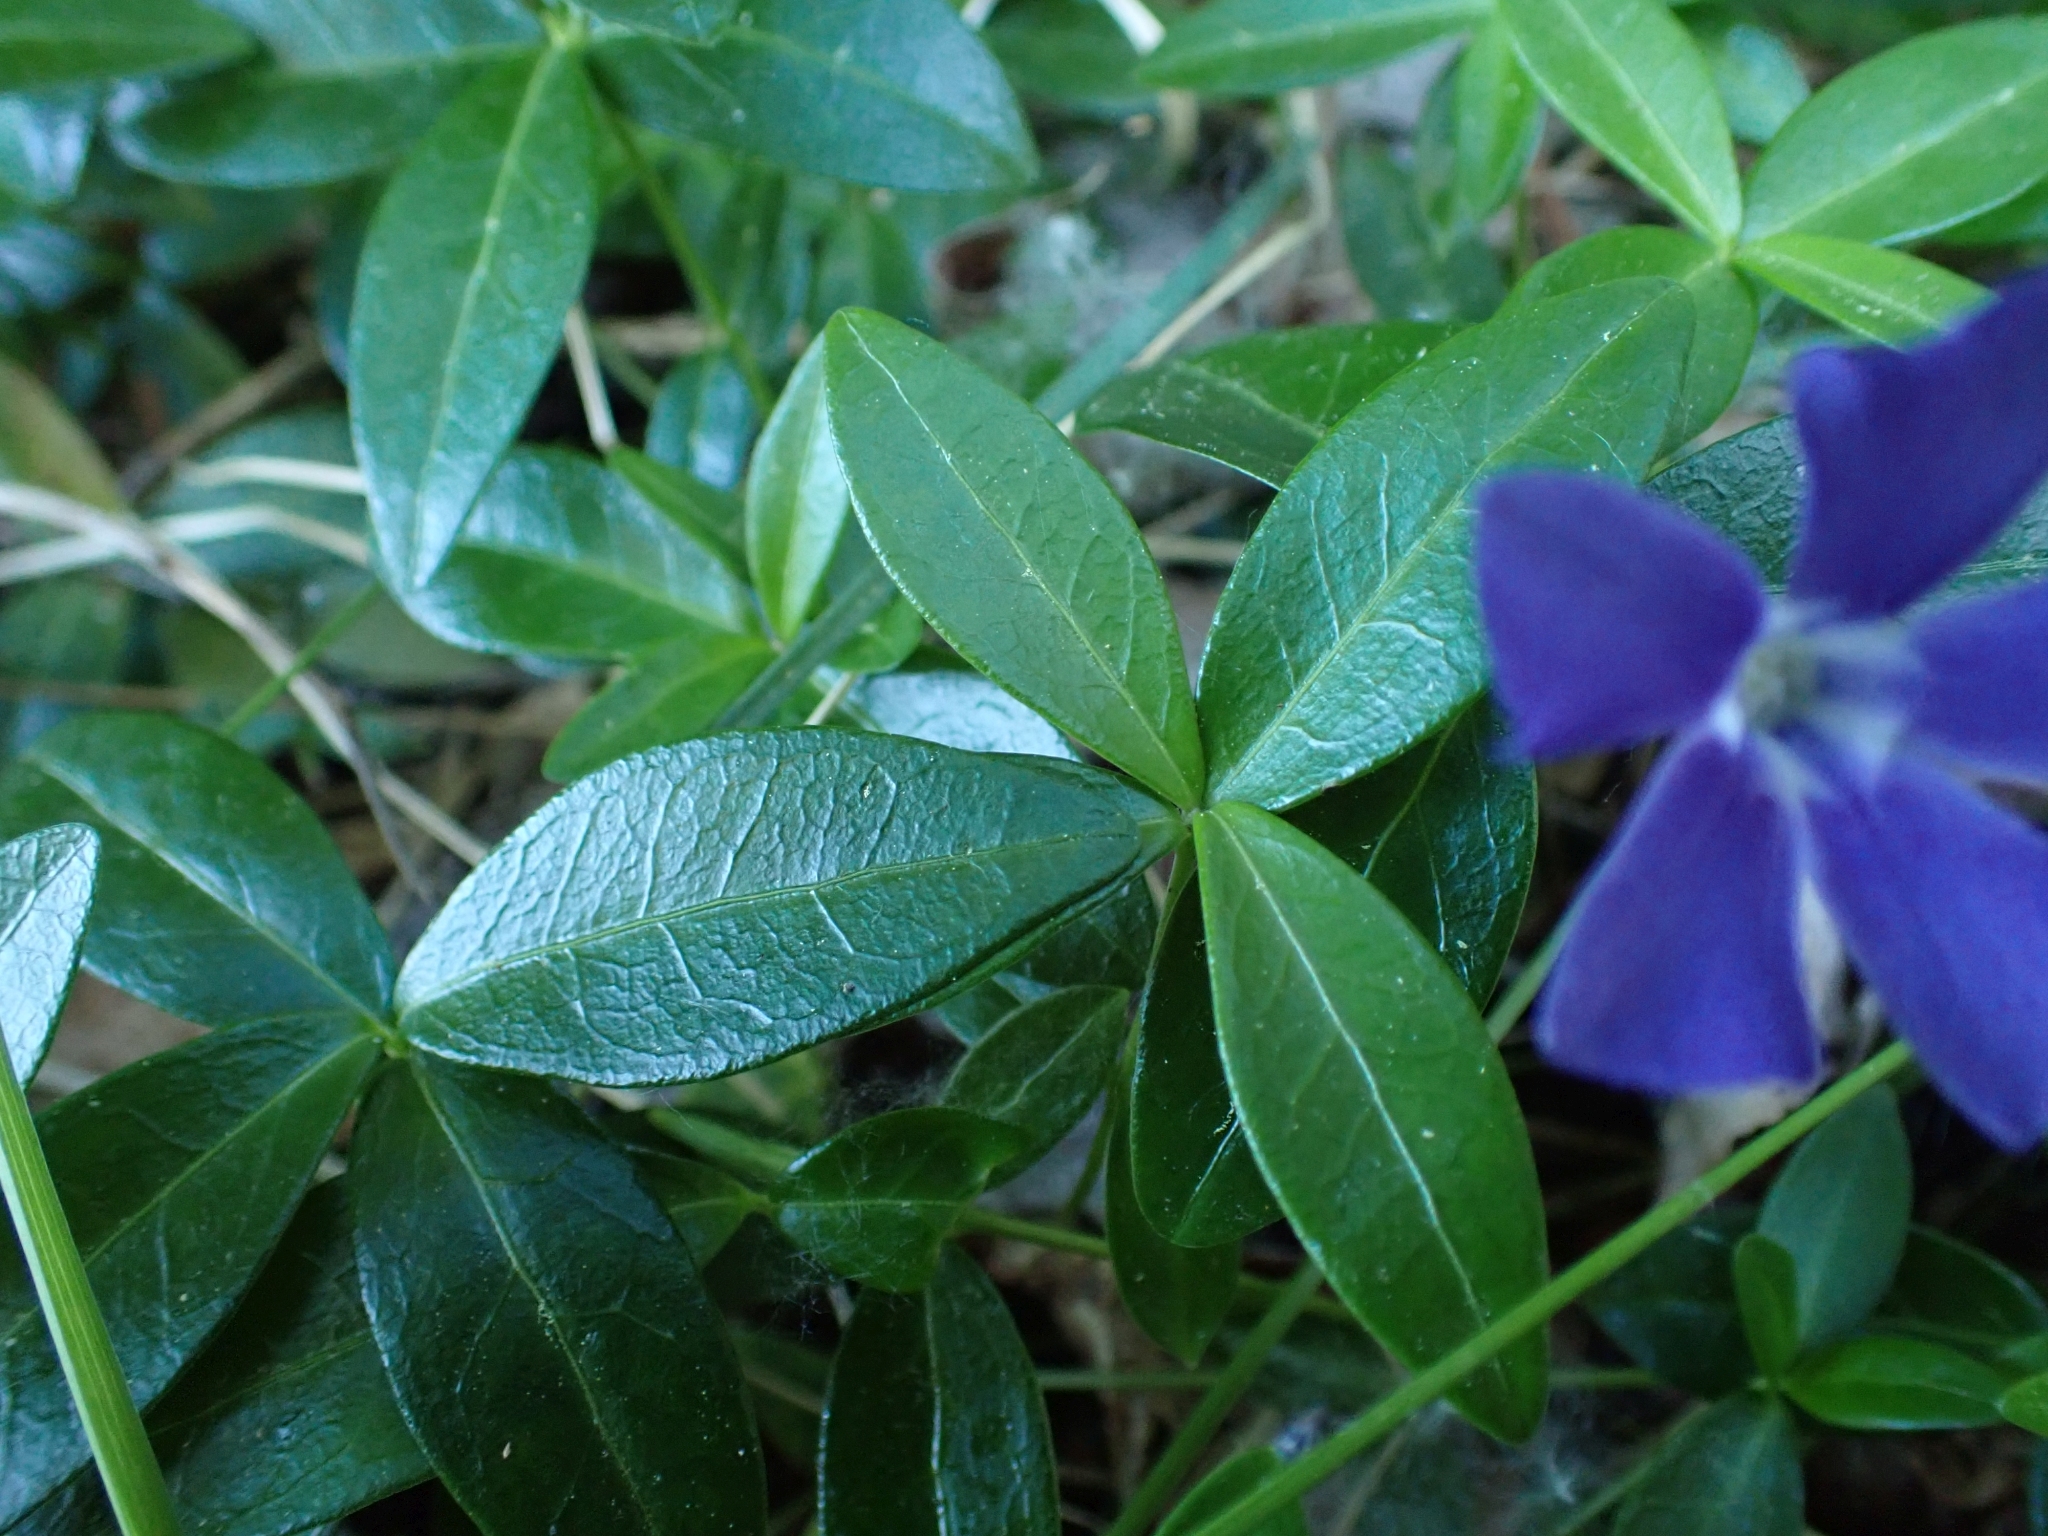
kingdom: Plantae
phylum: Tracheophyta
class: Magnoliopsida
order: Gentianales
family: Apocynaceae
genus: Vinca
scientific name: Vinca minor
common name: Lesser periwinkle
